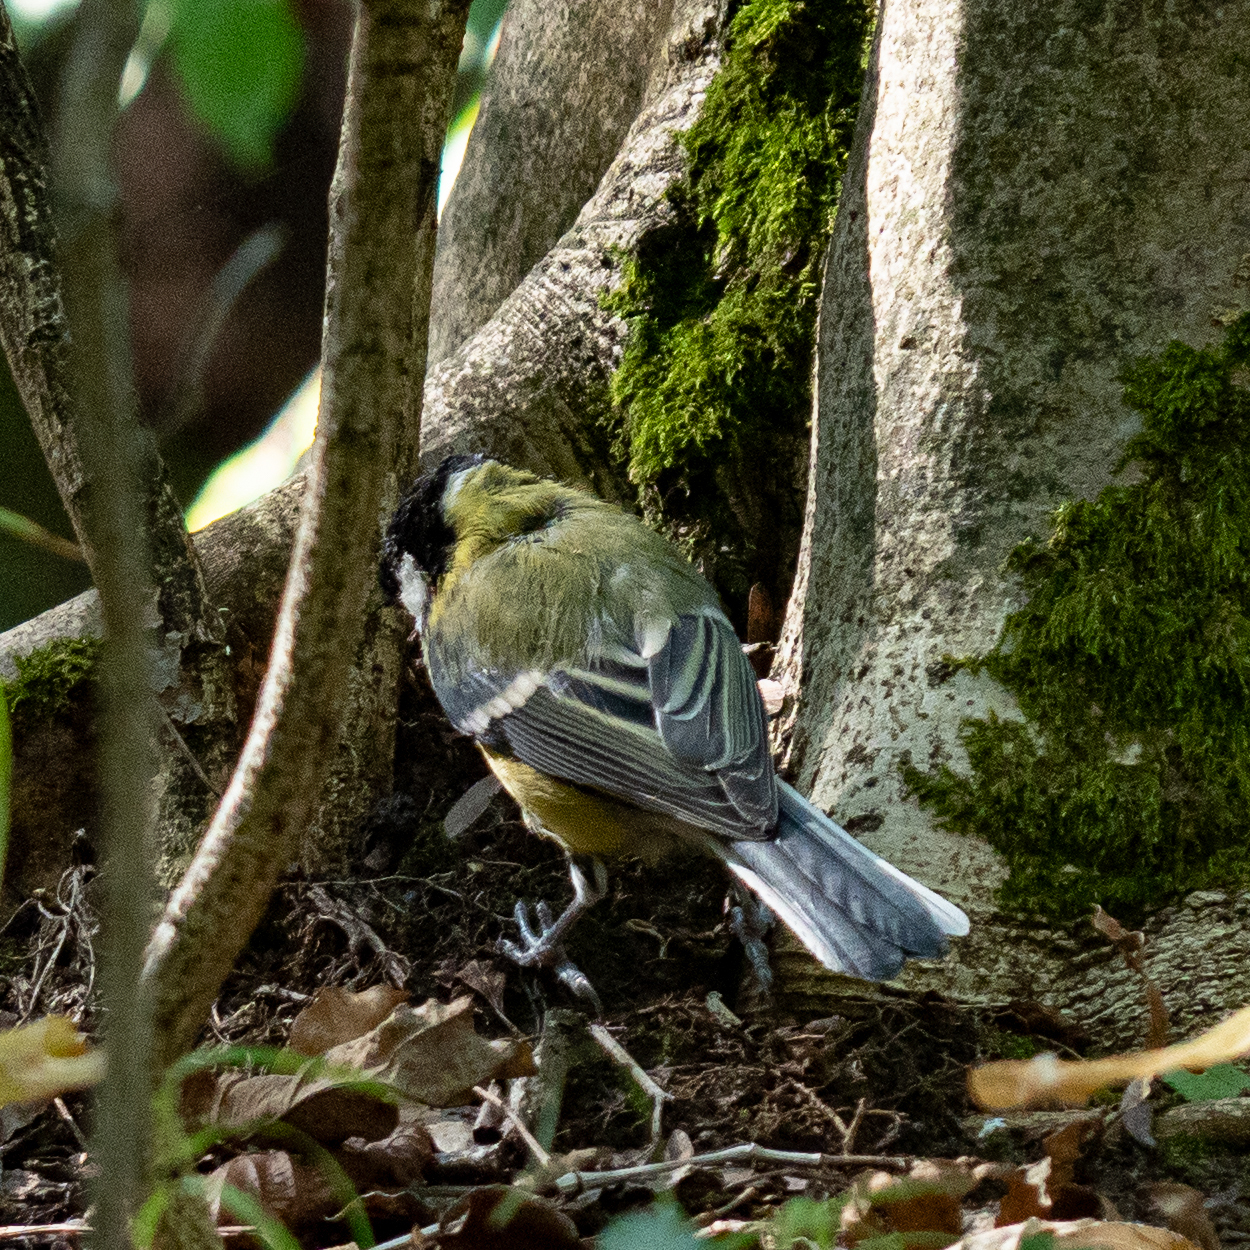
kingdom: Animalia
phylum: Chordata
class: Aves
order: Passeriformes
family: Paridae
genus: Parus
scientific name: Parus major
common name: Great tit
